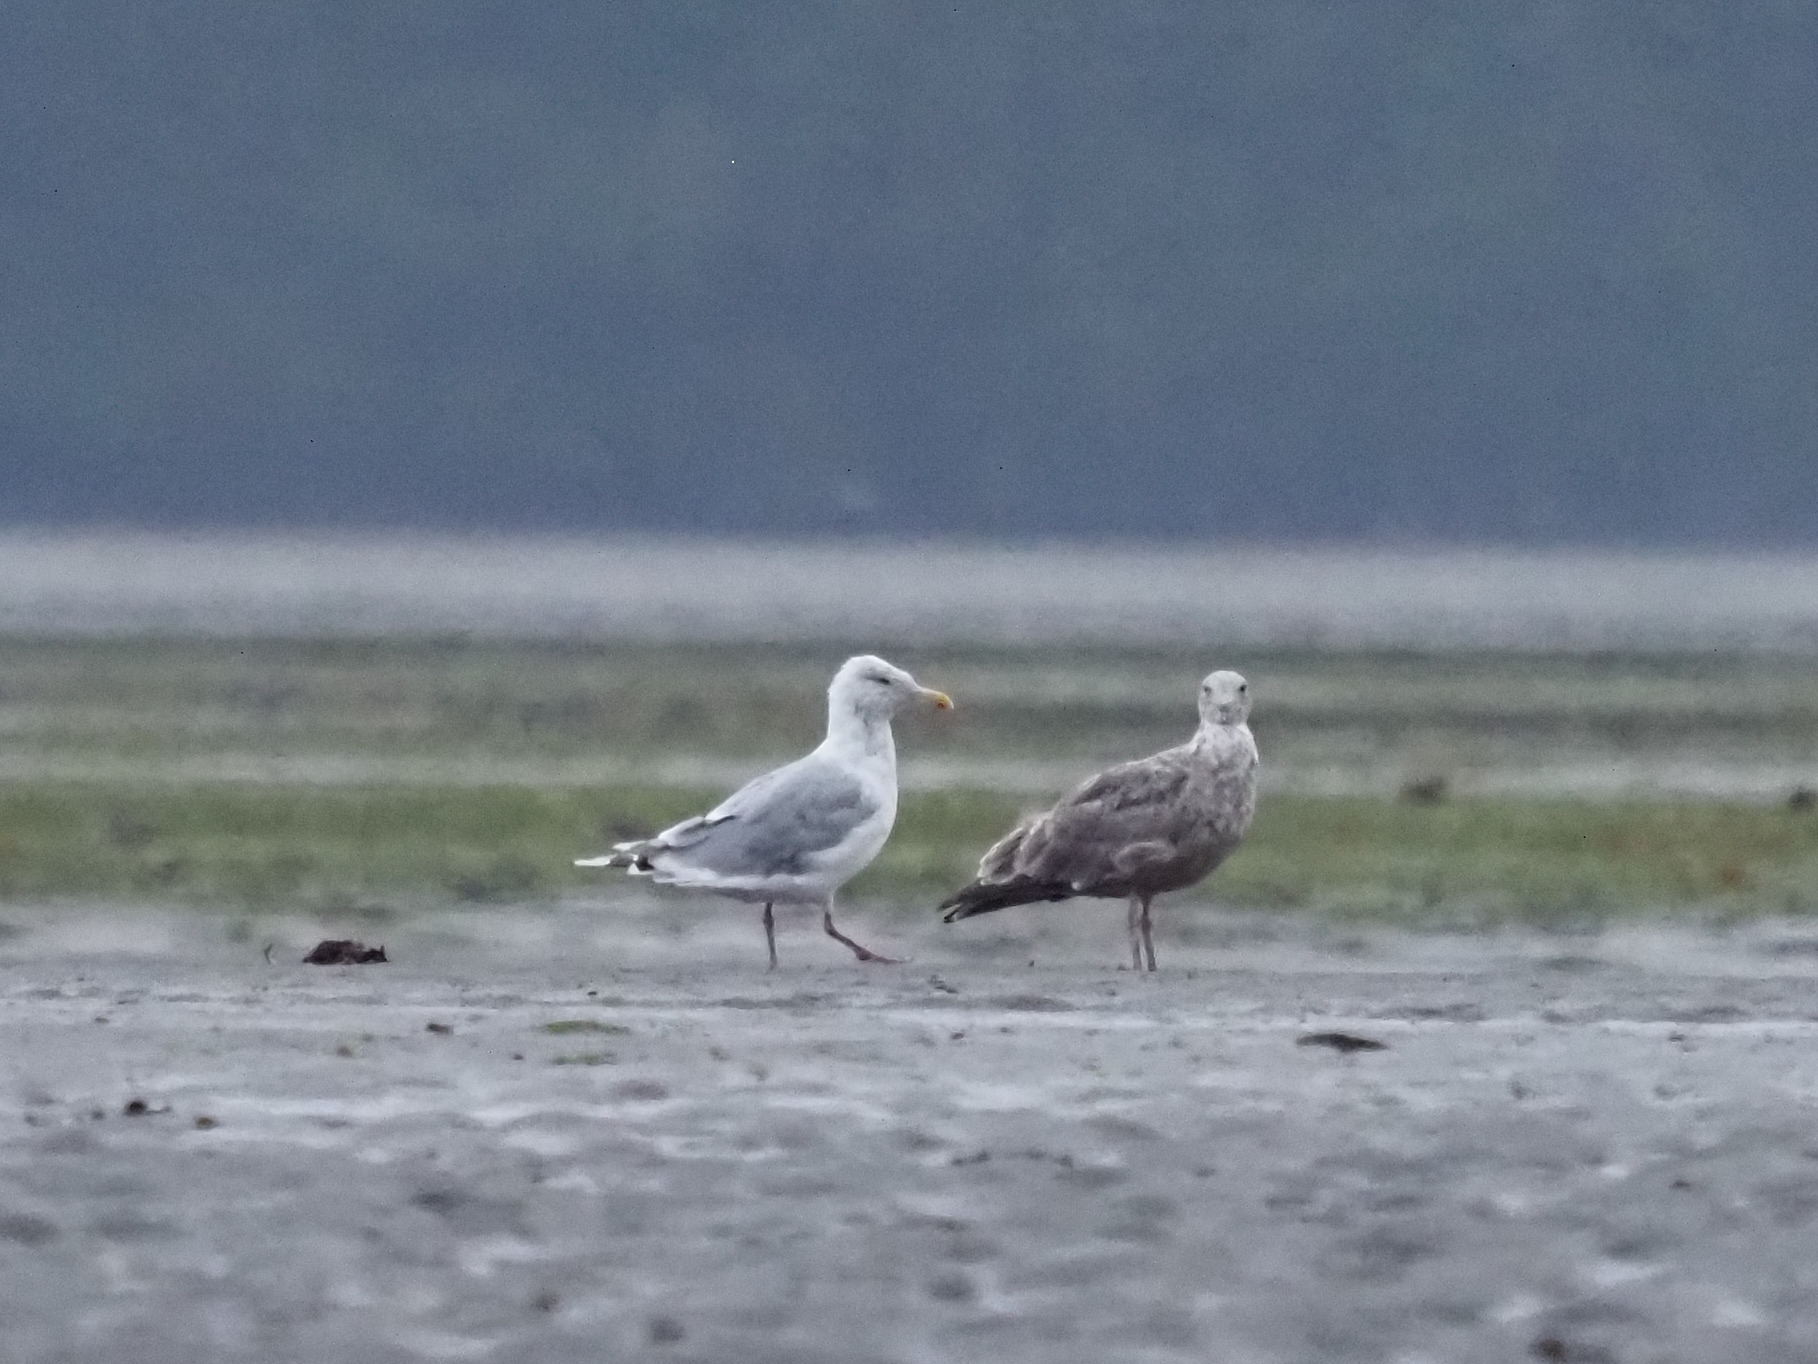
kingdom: Animalia
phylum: Chordata
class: Aves
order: Charadriiformes
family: Laridae
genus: Larus
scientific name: Larus
